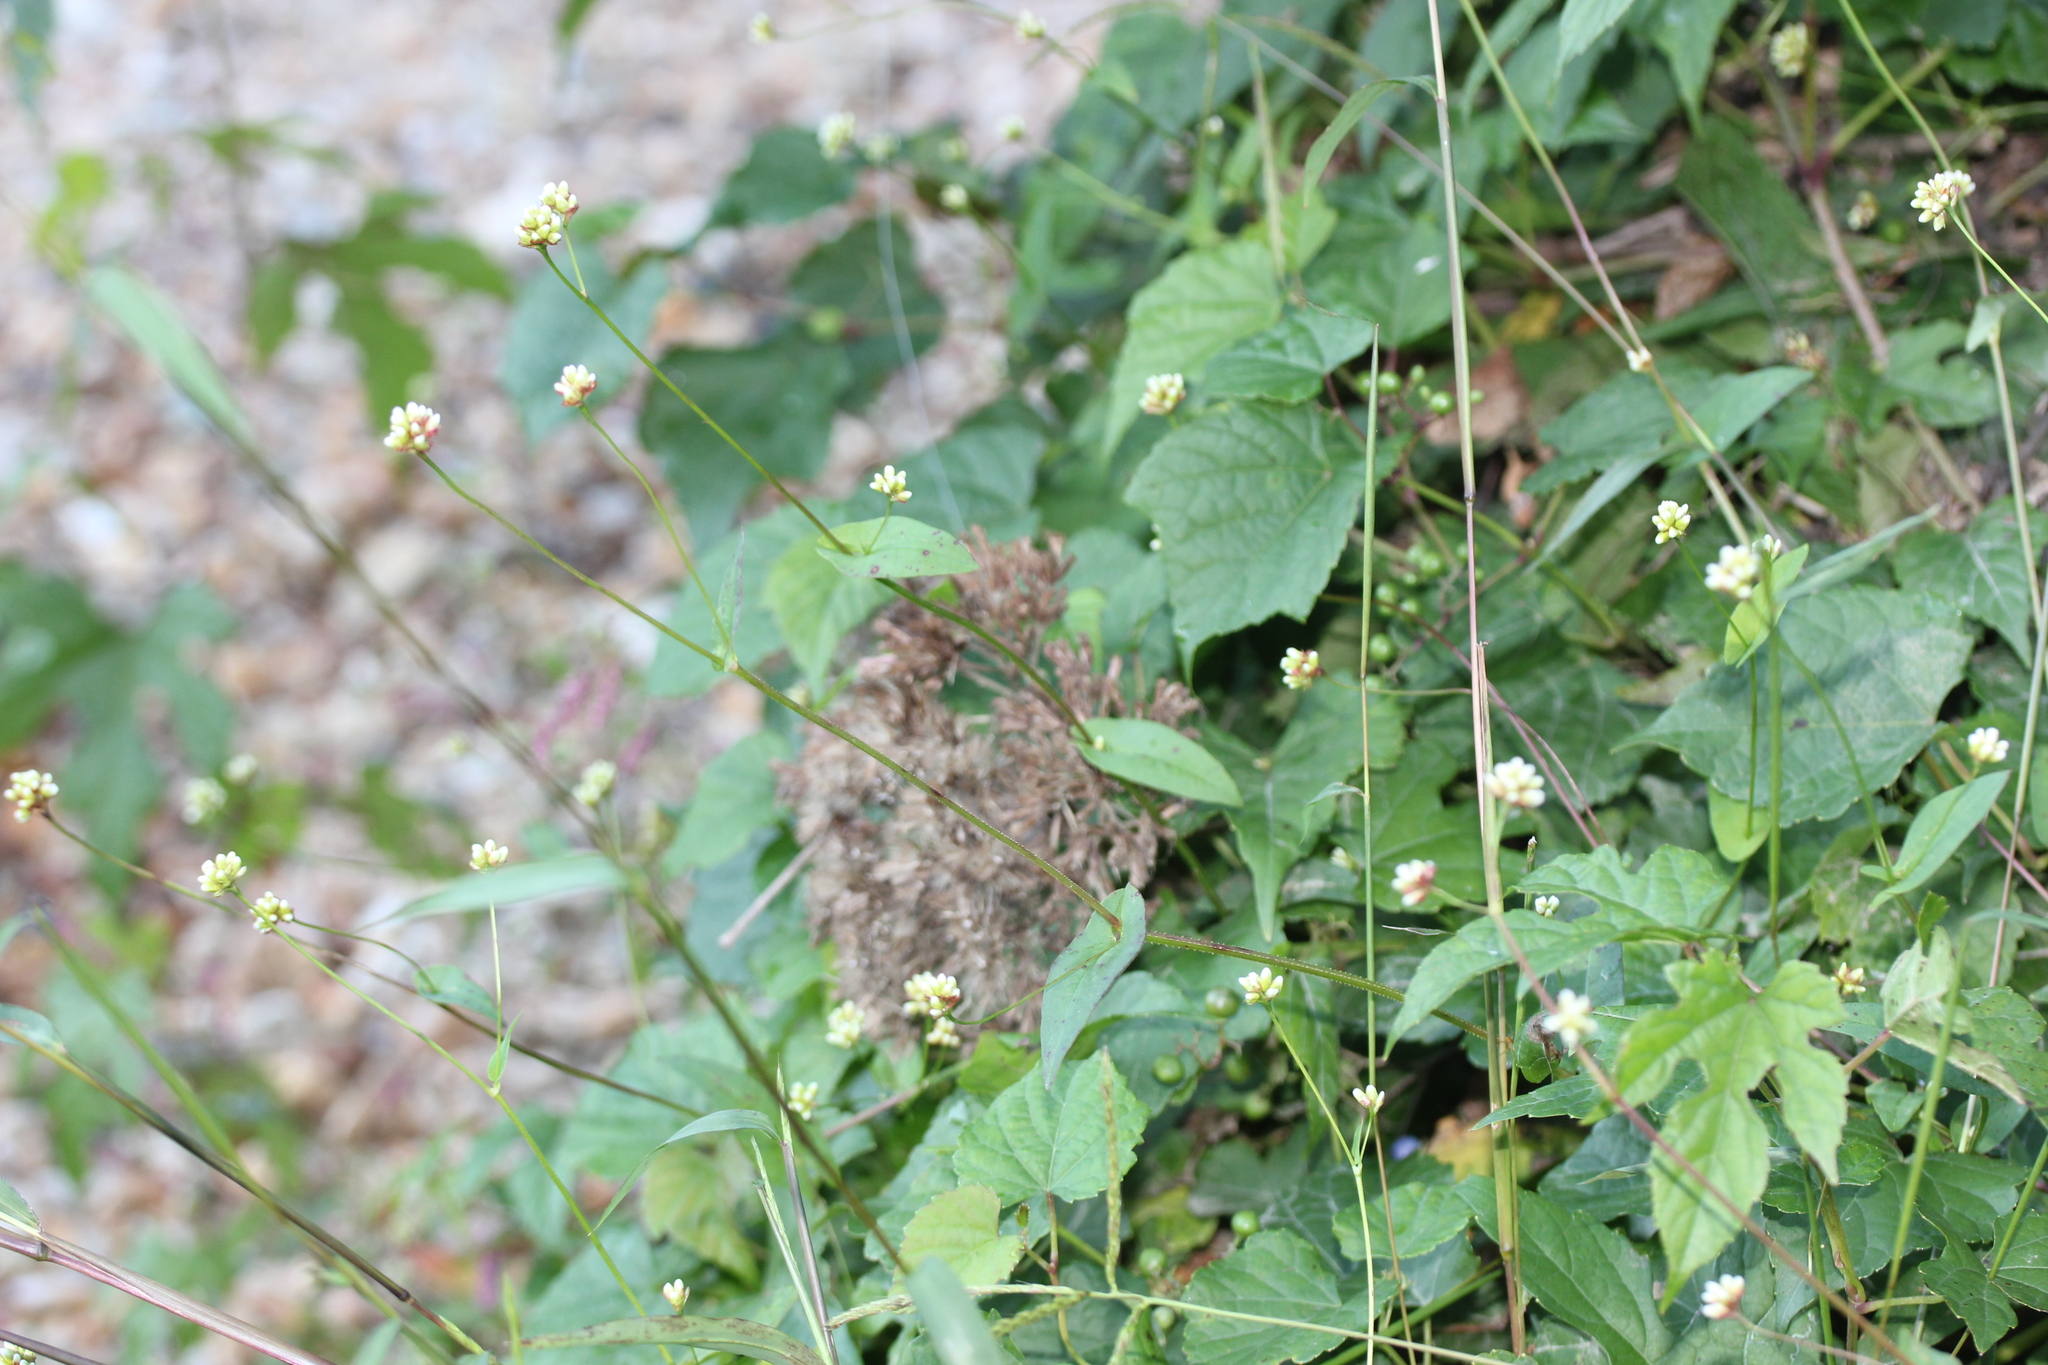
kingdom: Plantae
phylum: Tracheophyta
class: Magnoliopsida
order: Caryophyllales
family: Polygonaceae
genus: Persicaria
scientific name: Persicaria sagittata
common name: American tearthumb
